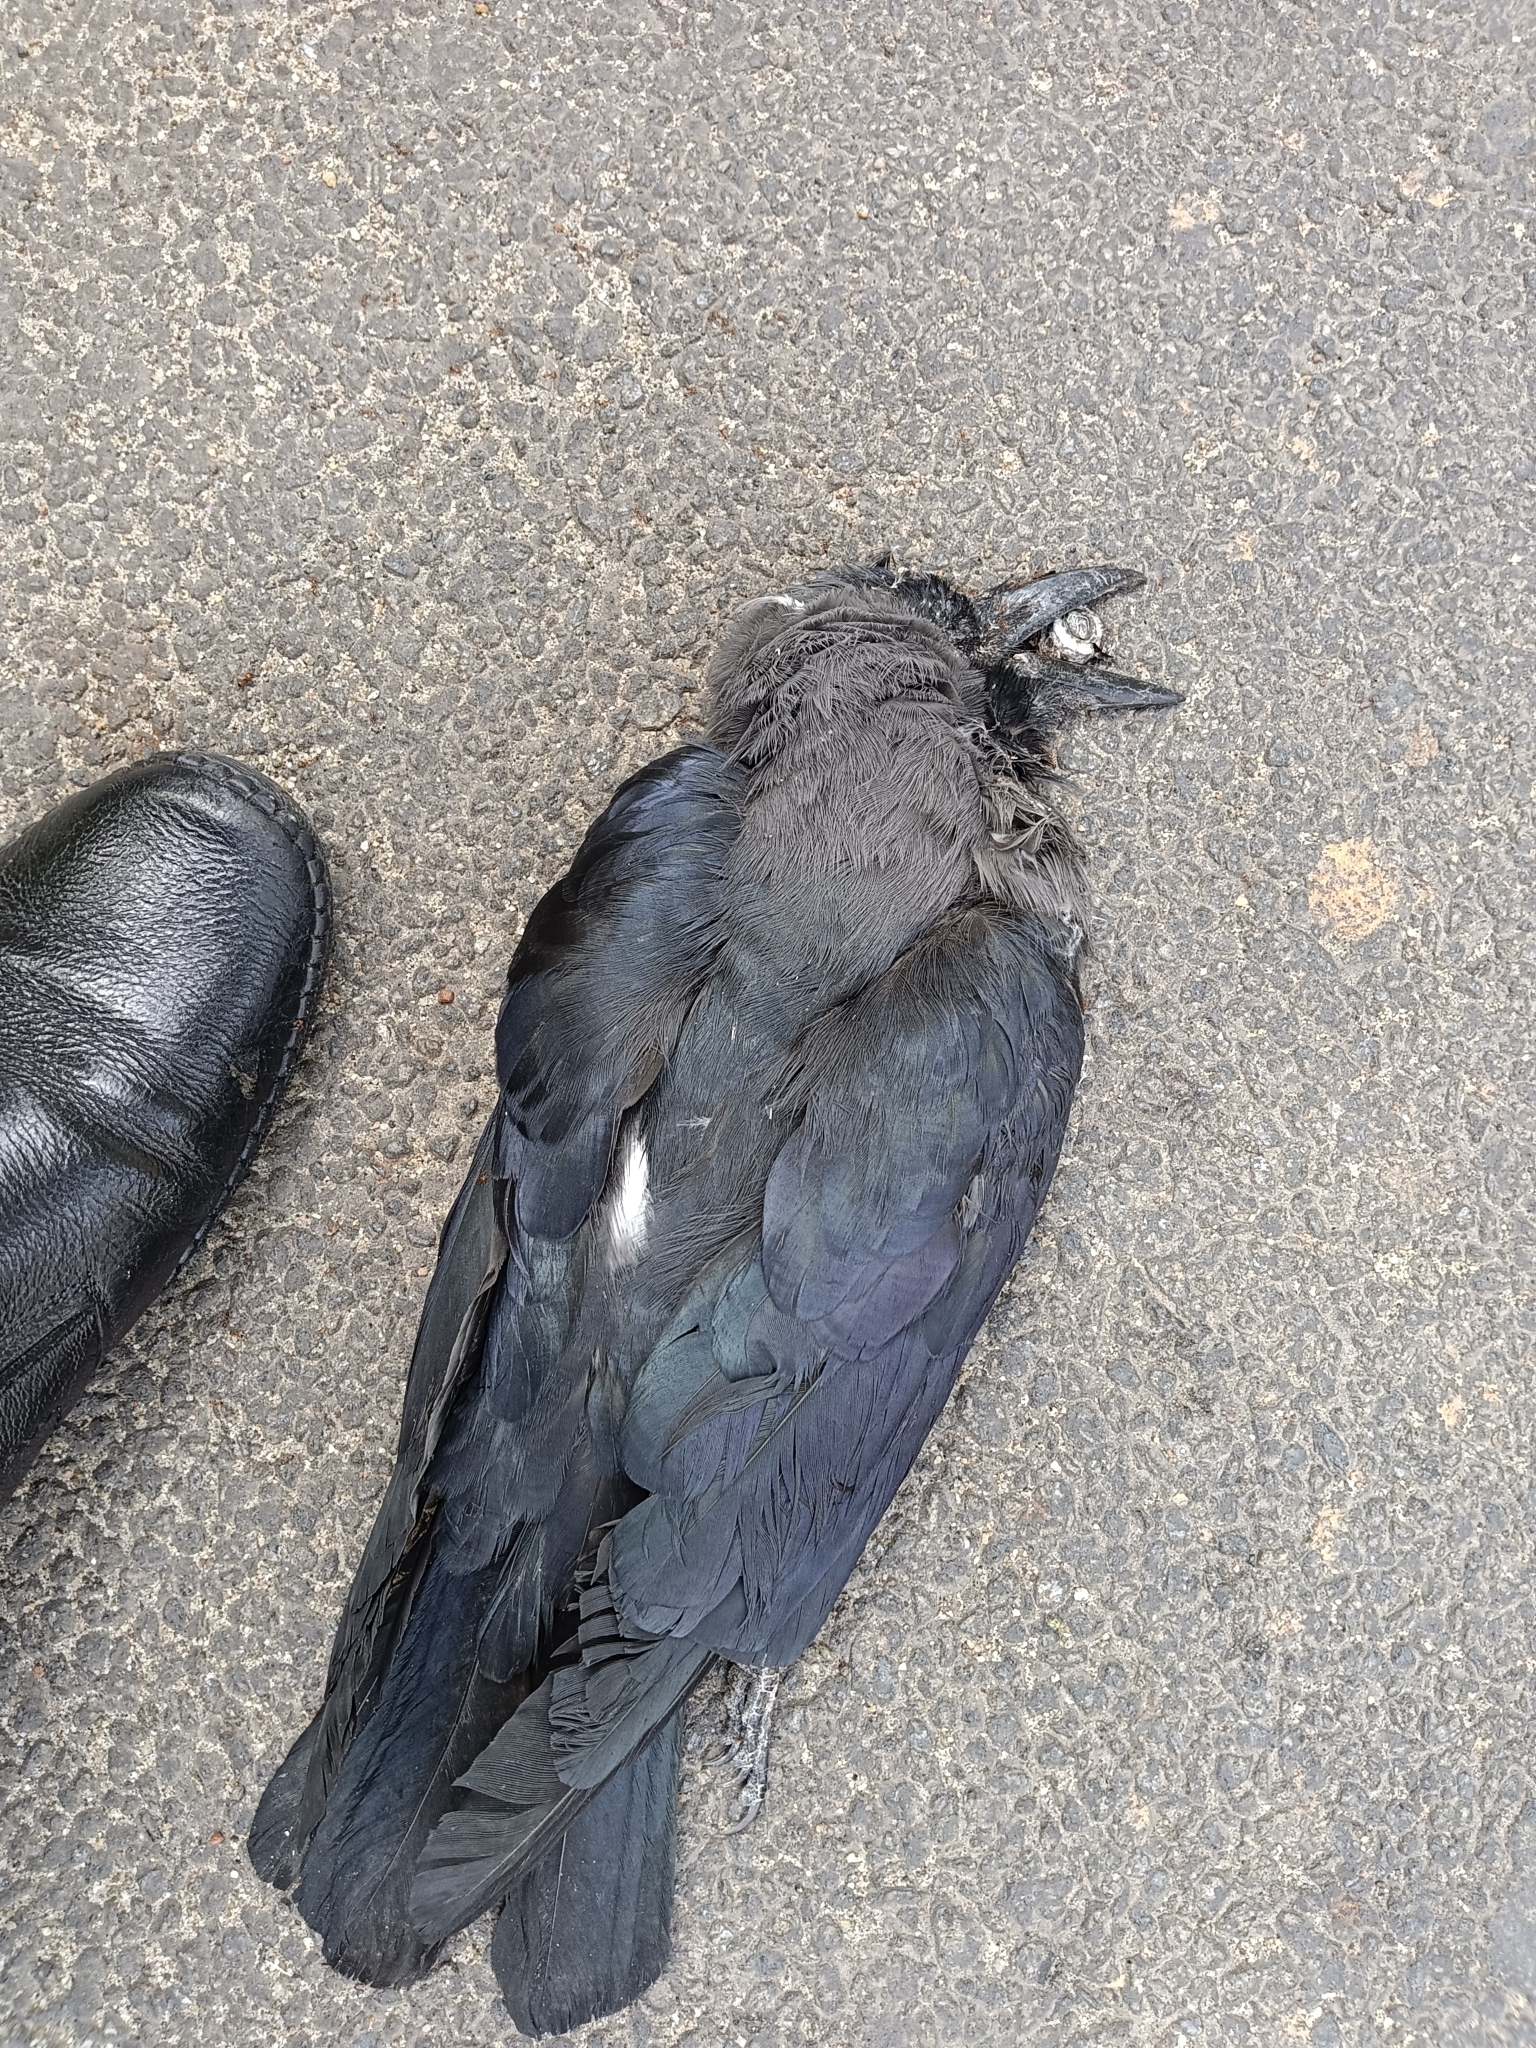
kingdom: Animalia
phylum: Chordata
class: Aves
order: Passeriformes
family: Corvidae
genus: Corvus
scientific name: Corvus splendens
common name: House crow
